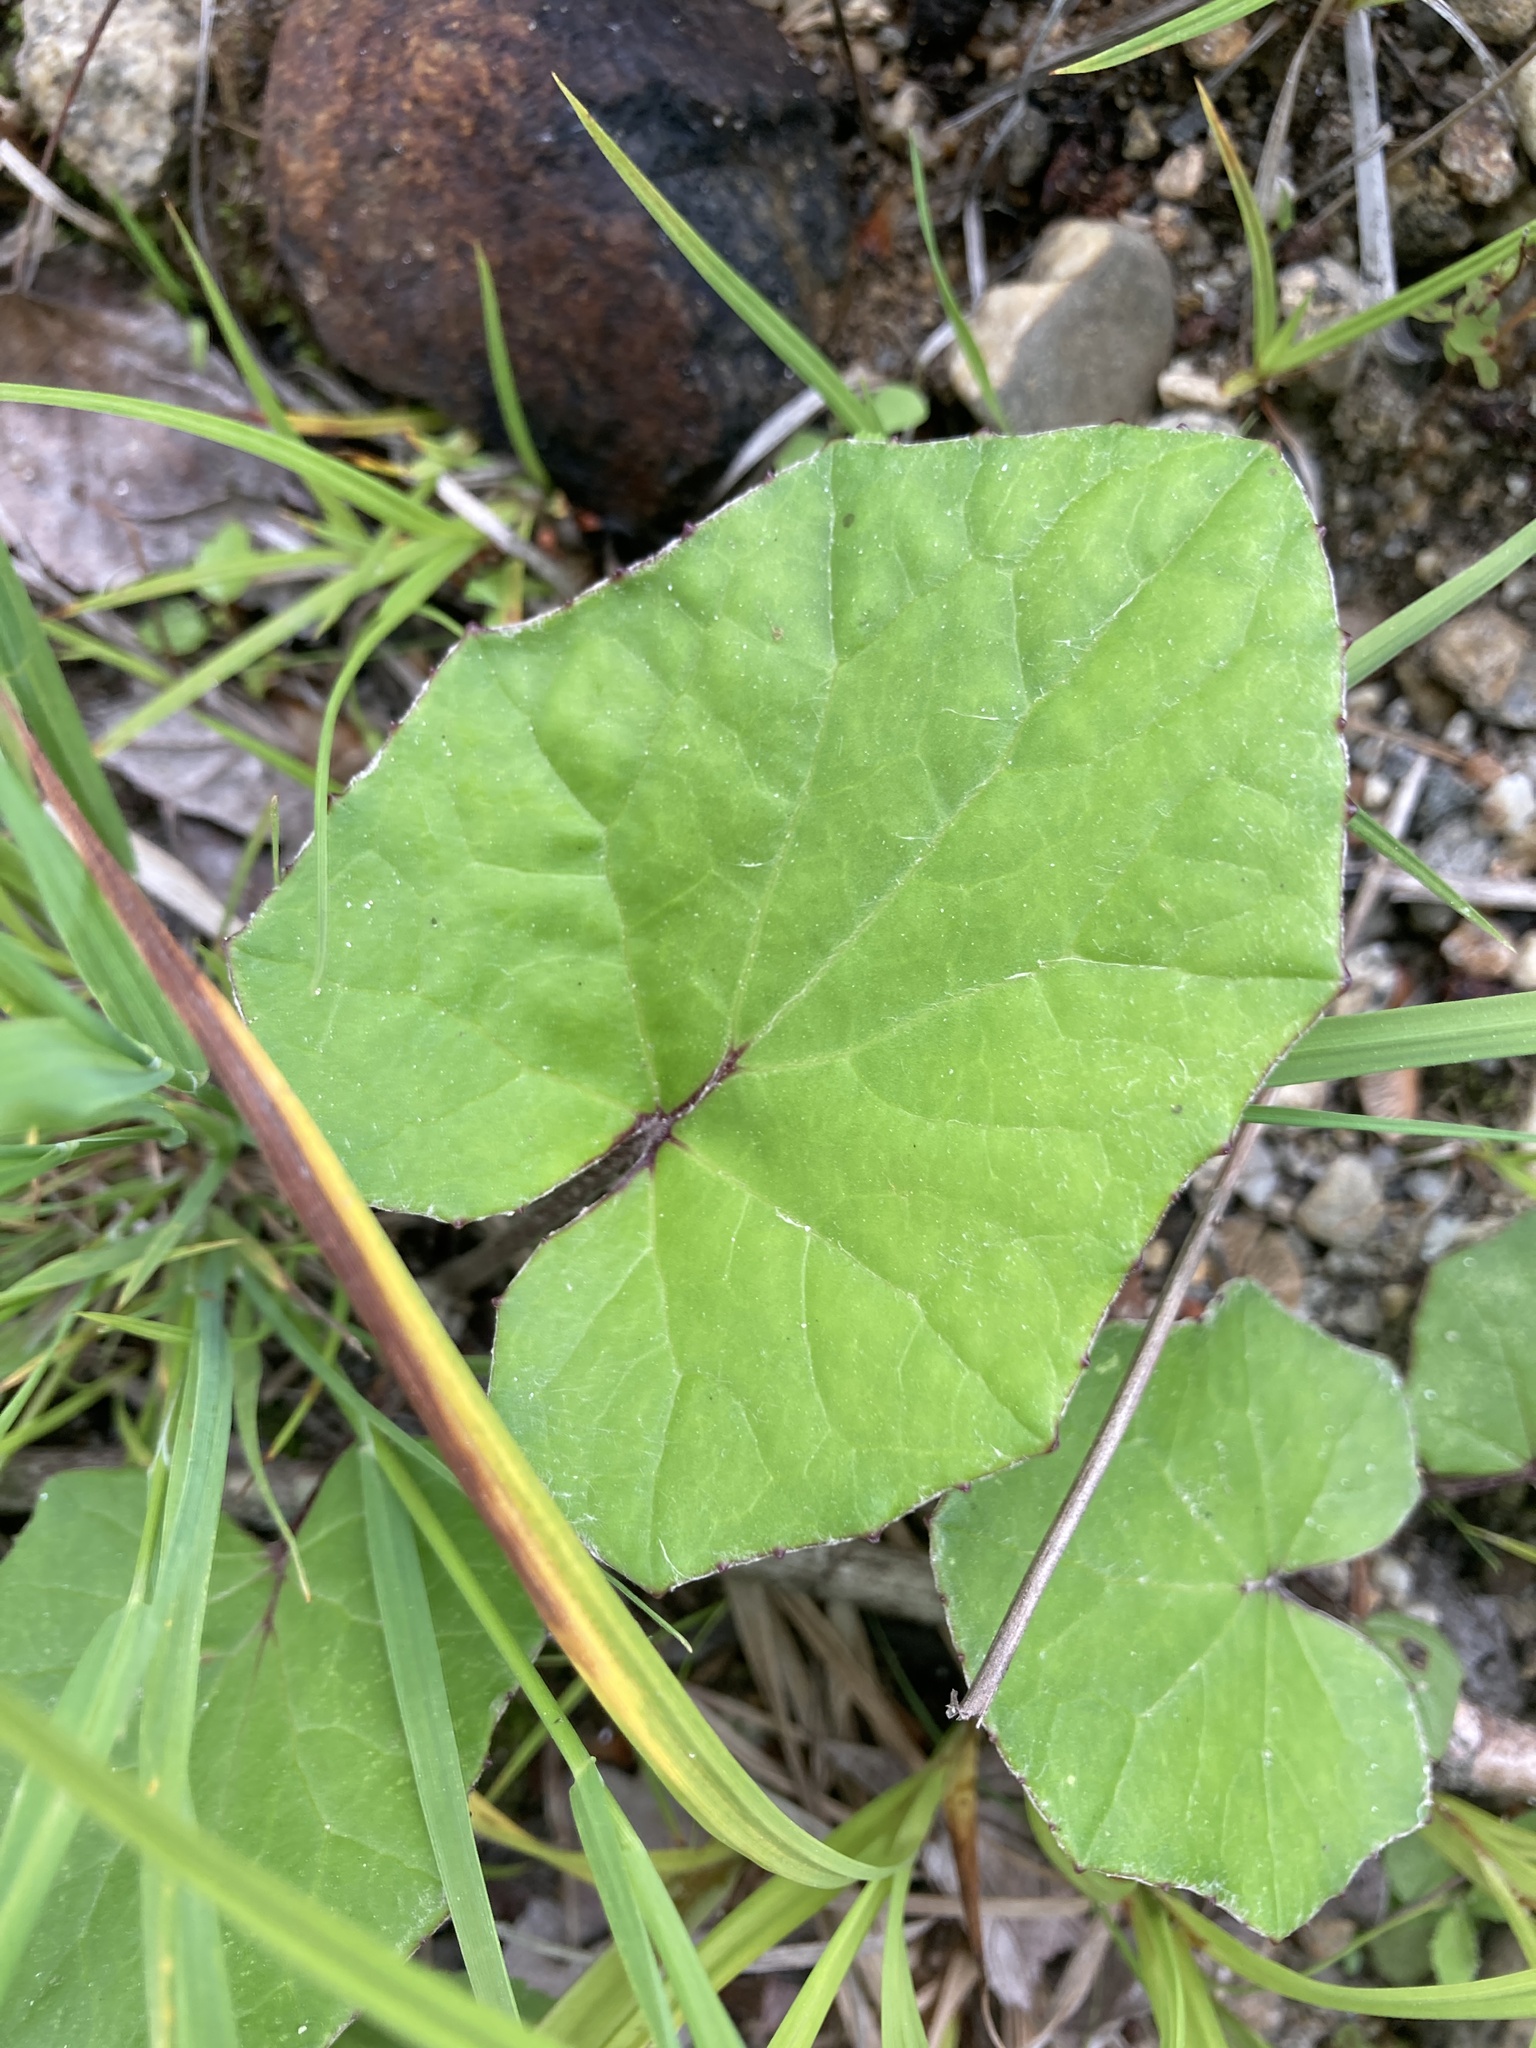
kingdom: Plantae
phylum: Tracheophyta
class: Magnoliopsida
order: Asterales
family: Asteraceae
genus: Tussilago
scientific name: Tussilago farfara
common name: Coltsfoot
